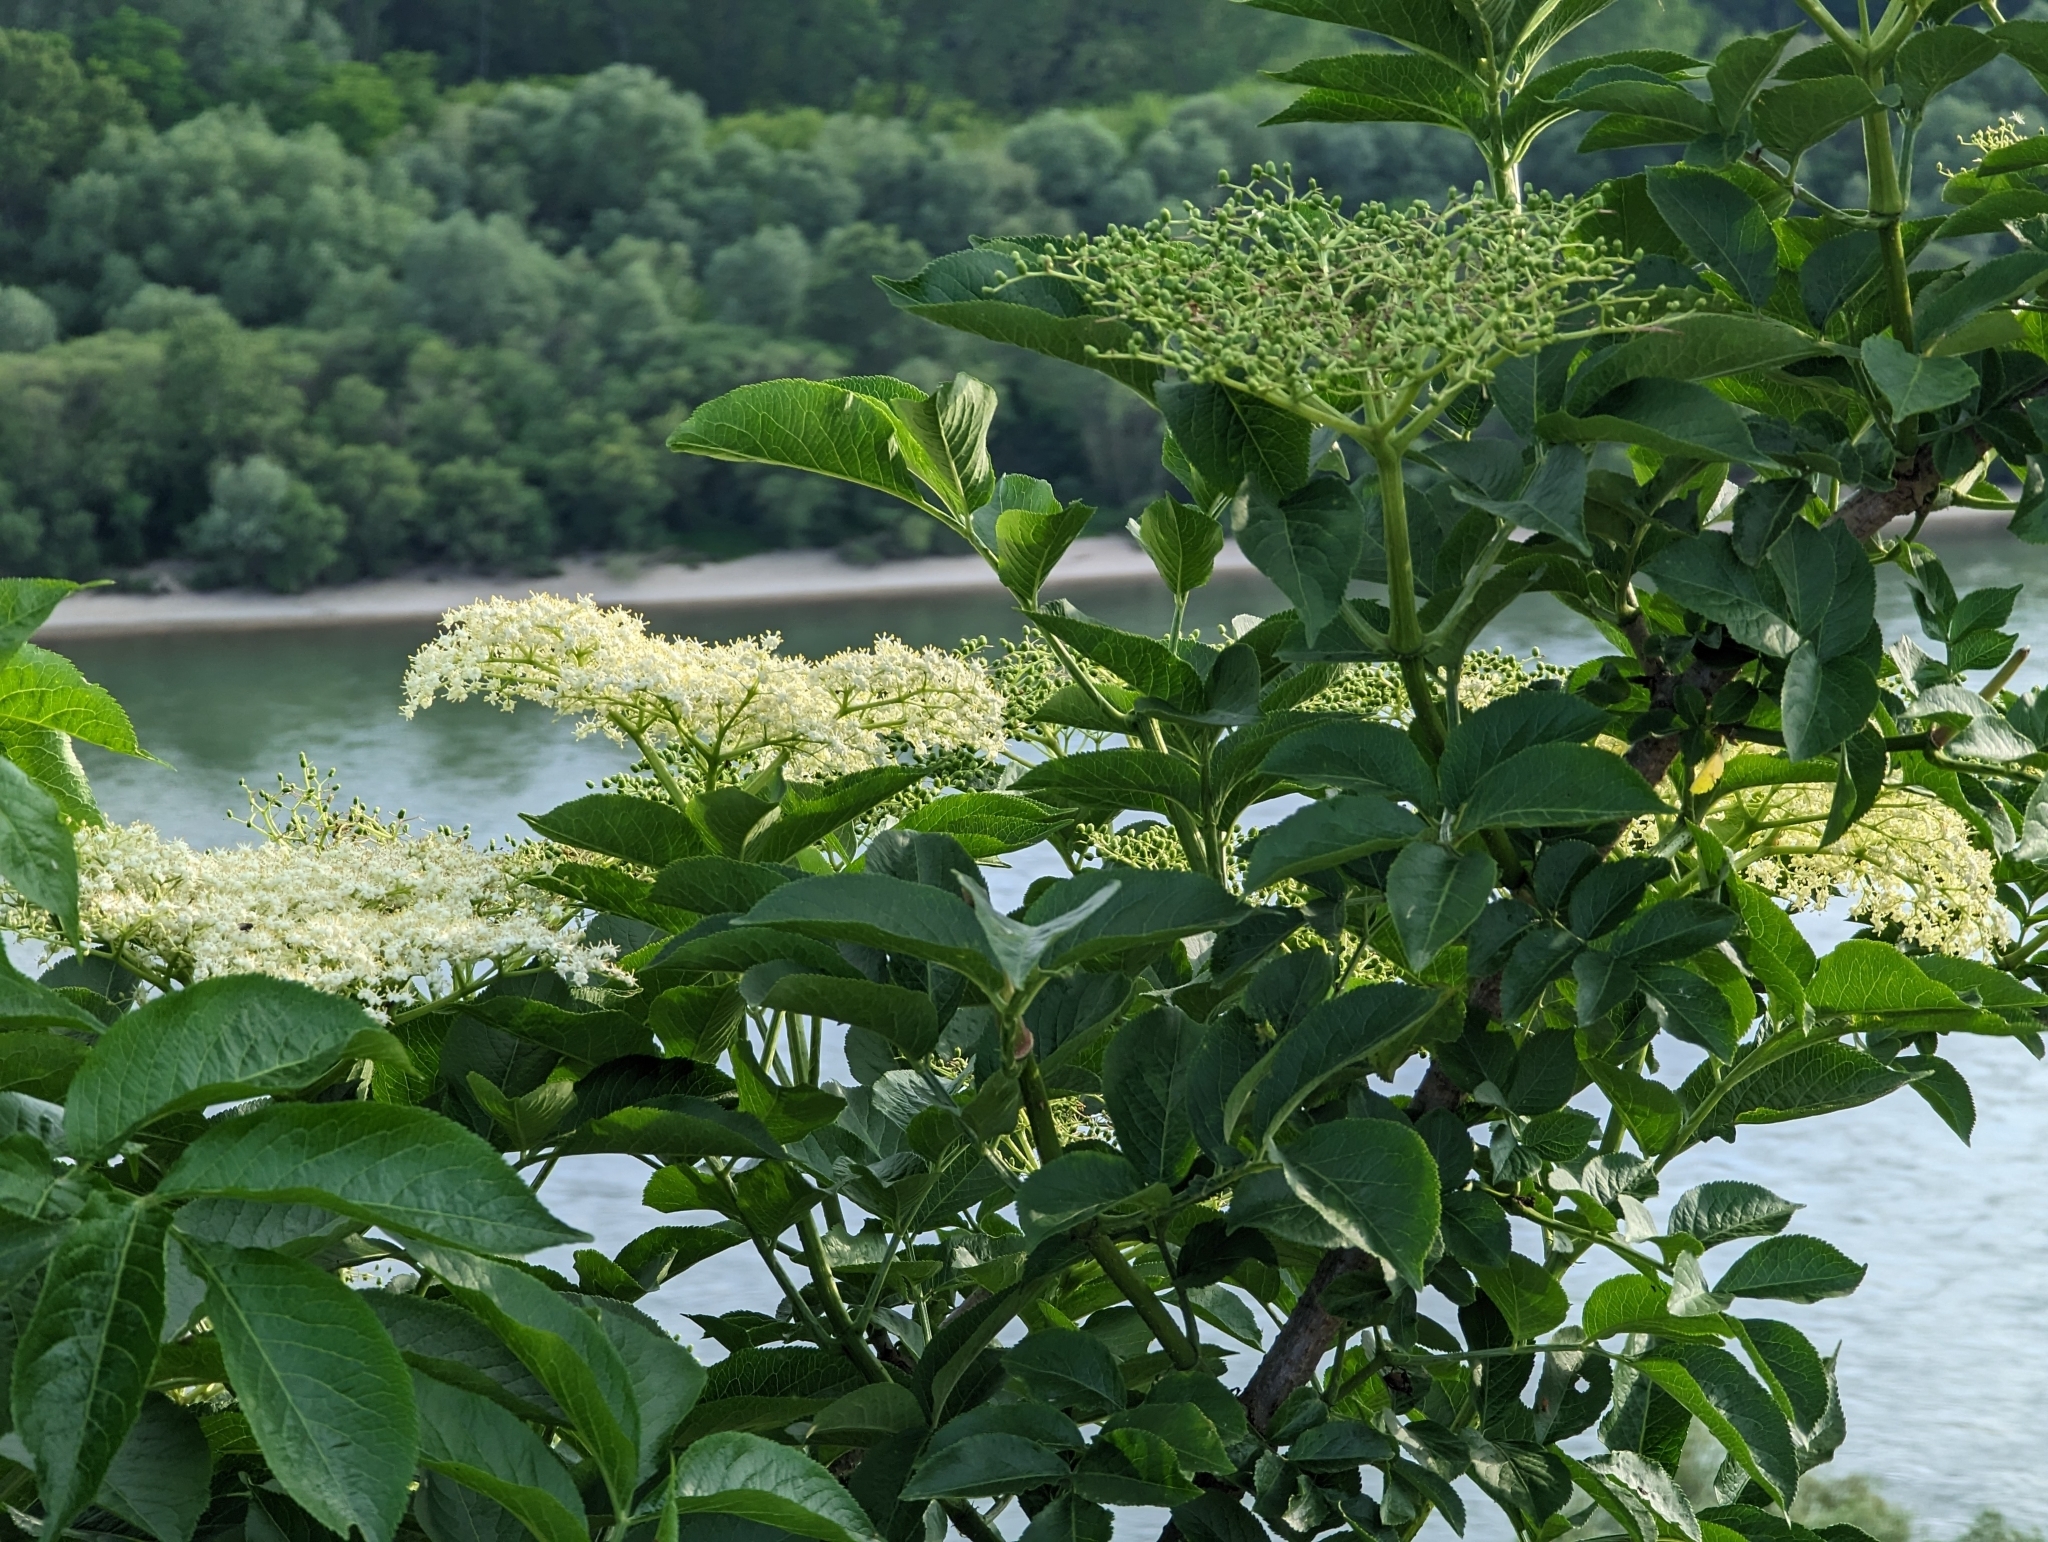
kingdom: Plantae
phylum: Tracheophyta
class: Magnoliopsida
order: Dipsacales
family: Viburnaceae
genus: Sambucus
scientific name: Sambucus nigra
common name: Elder
